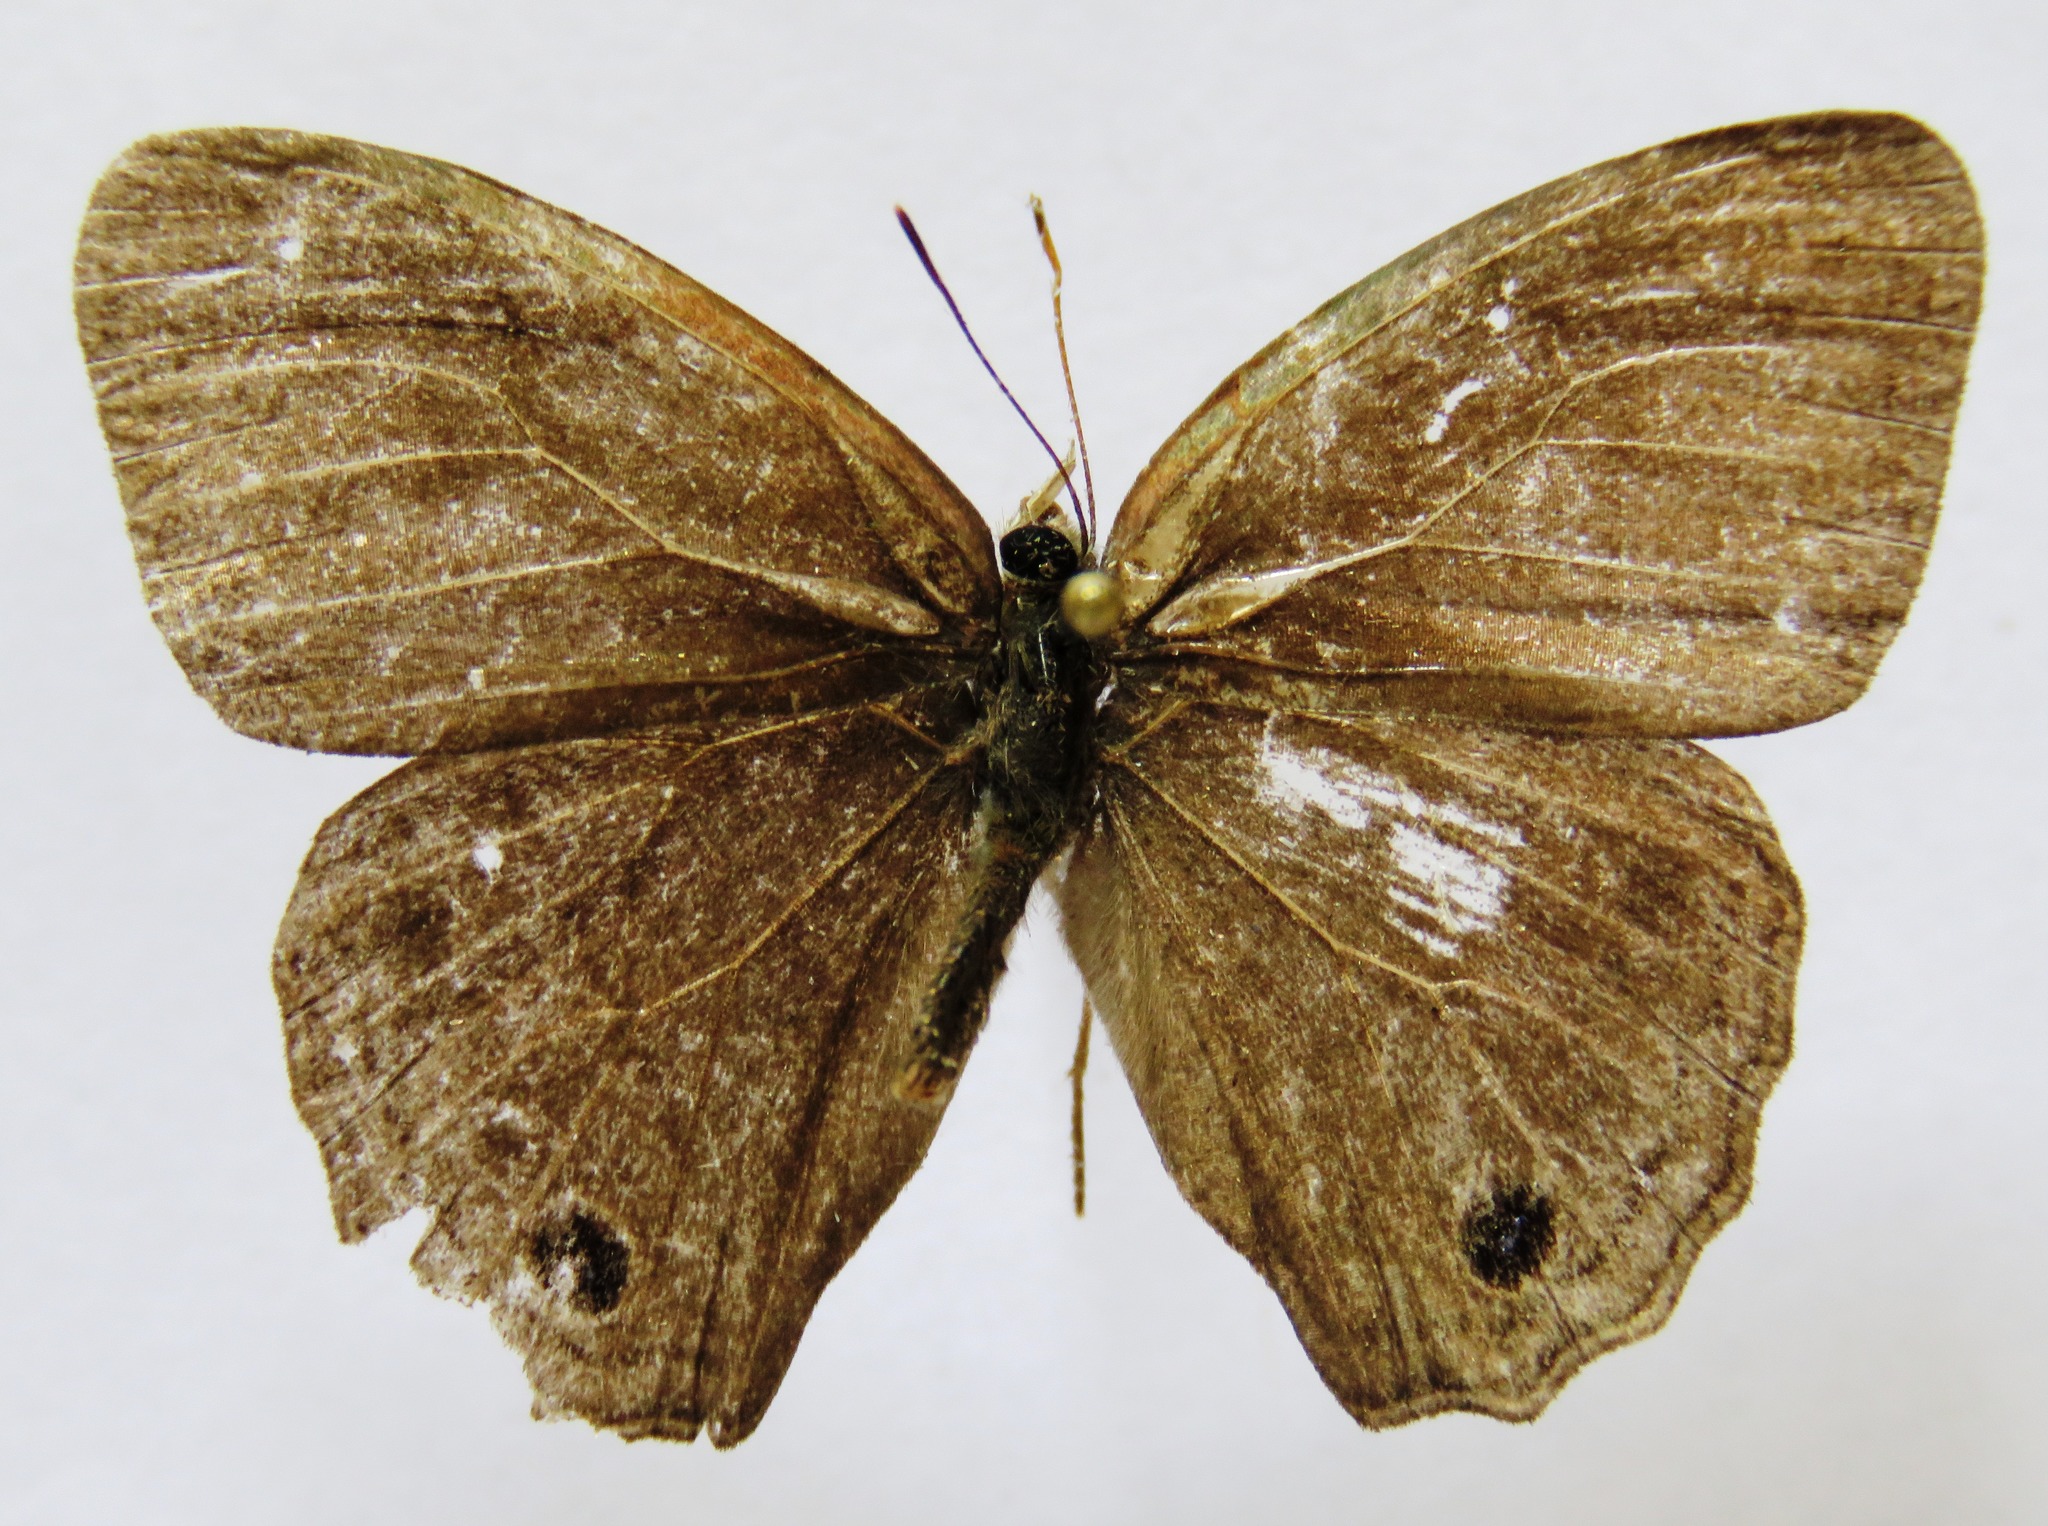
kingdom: Animalia
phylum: Arthropoda
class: Insecta
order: Lepidoptera
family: Nymphalidae
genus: Vareuptychia
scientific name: Vareuptychia similis
